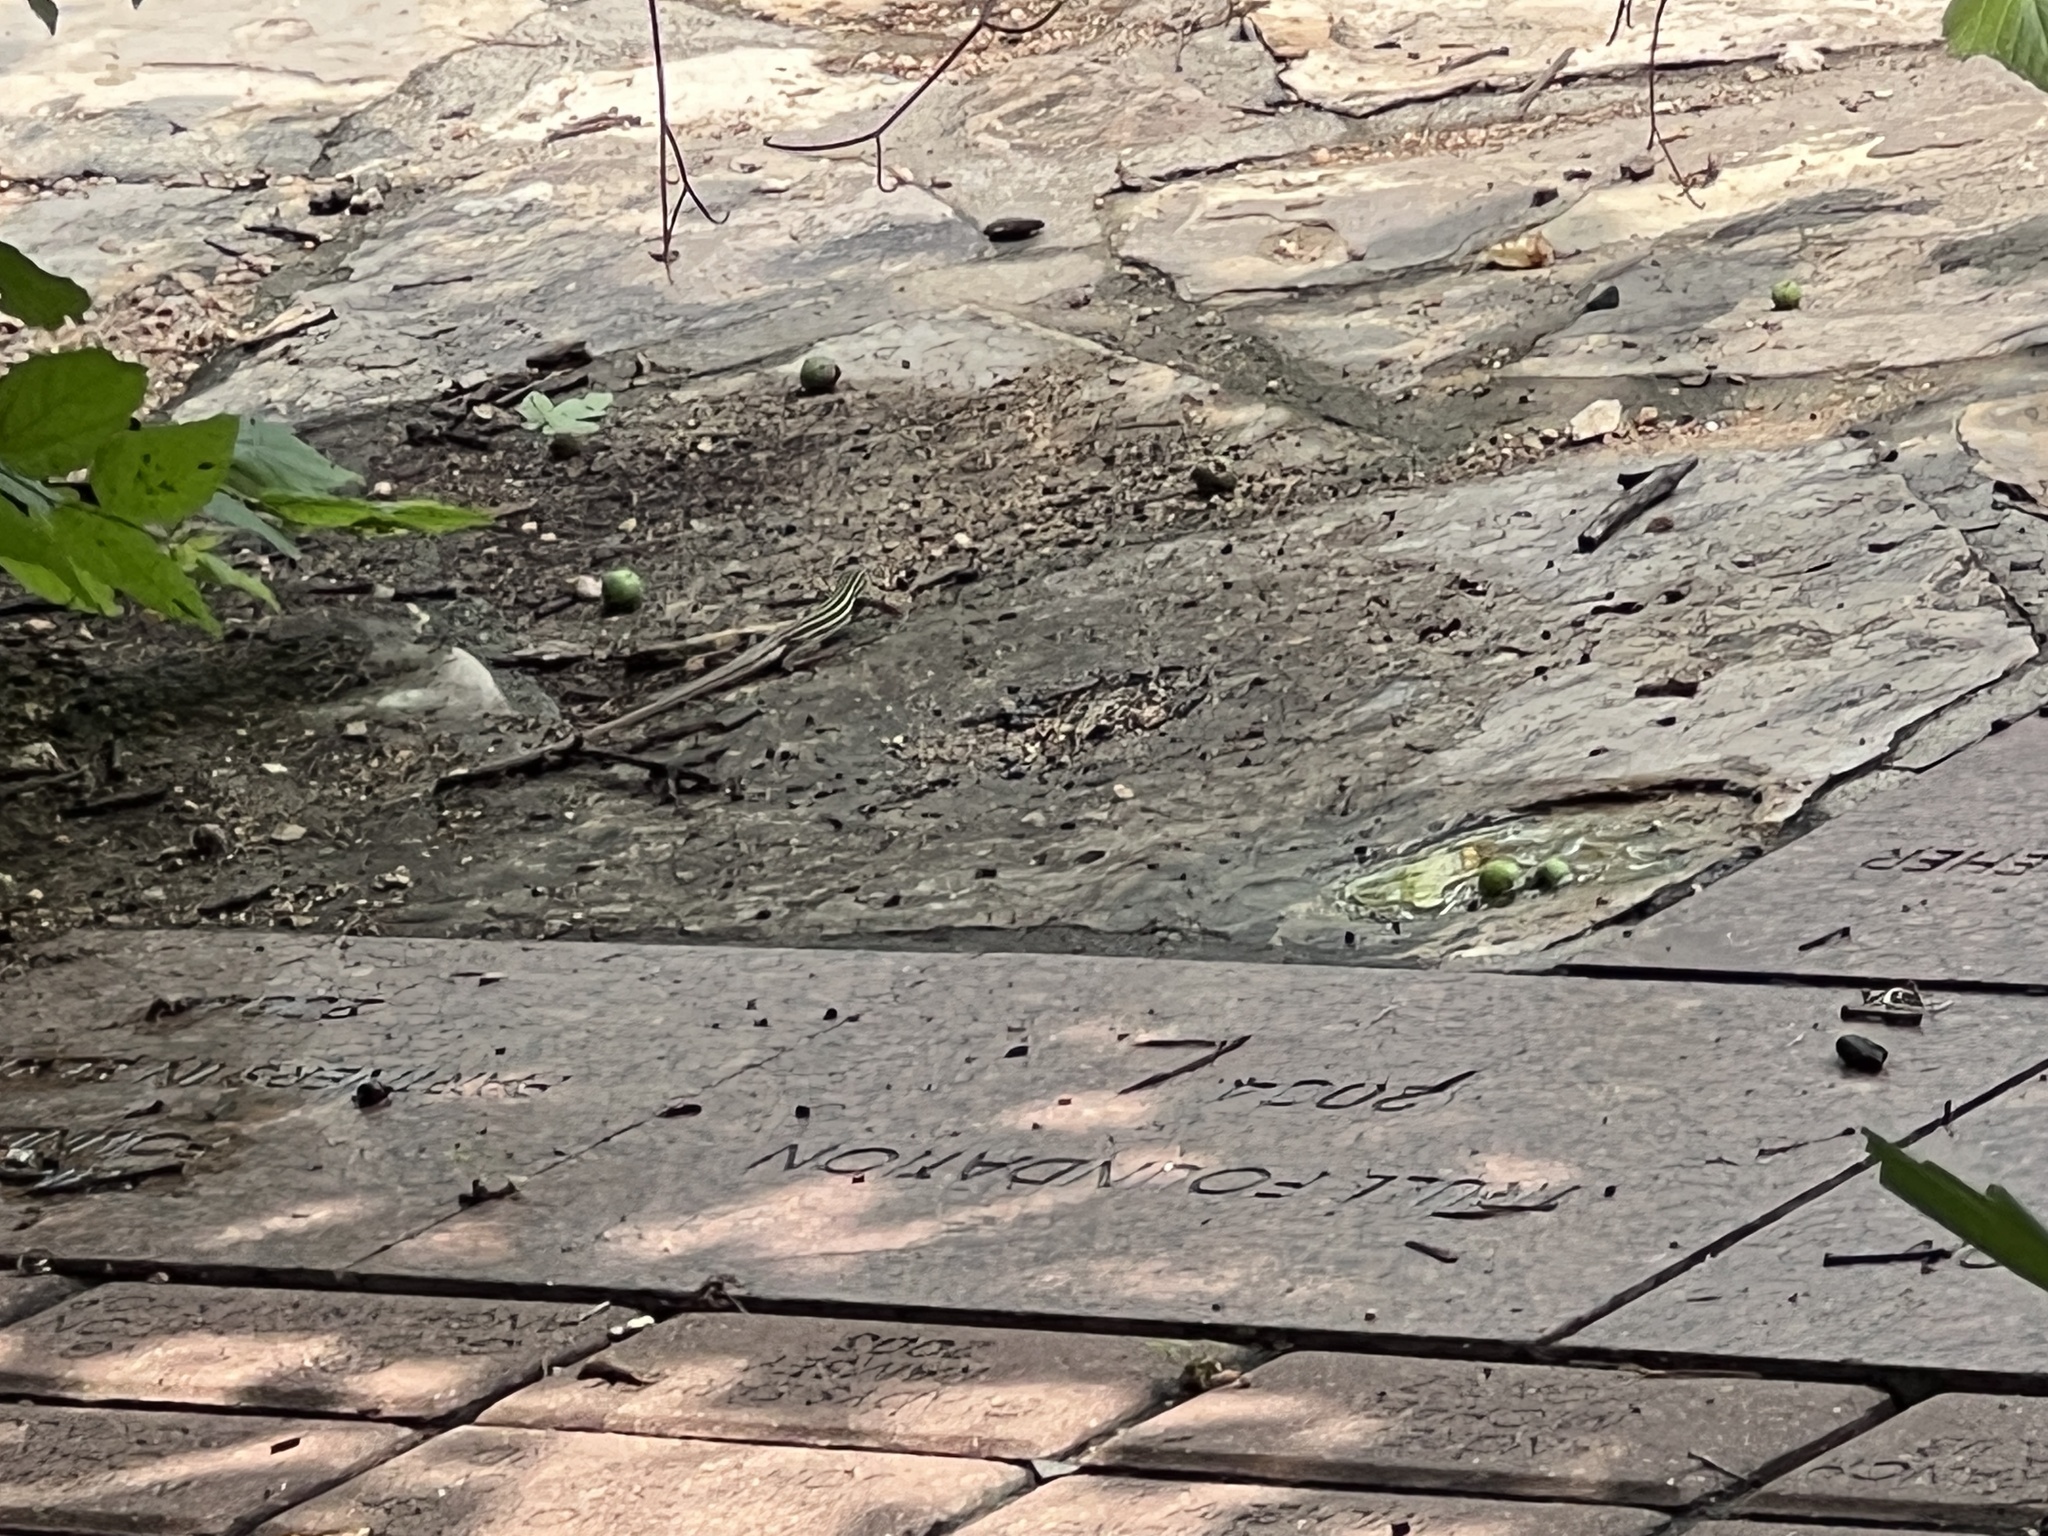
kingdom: Animalia
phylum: Chordata
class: Squamata
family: Teiidae
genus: Aspidoscelis
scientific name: Aspidoscelis gularis
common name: Eastern spotted whiptail
